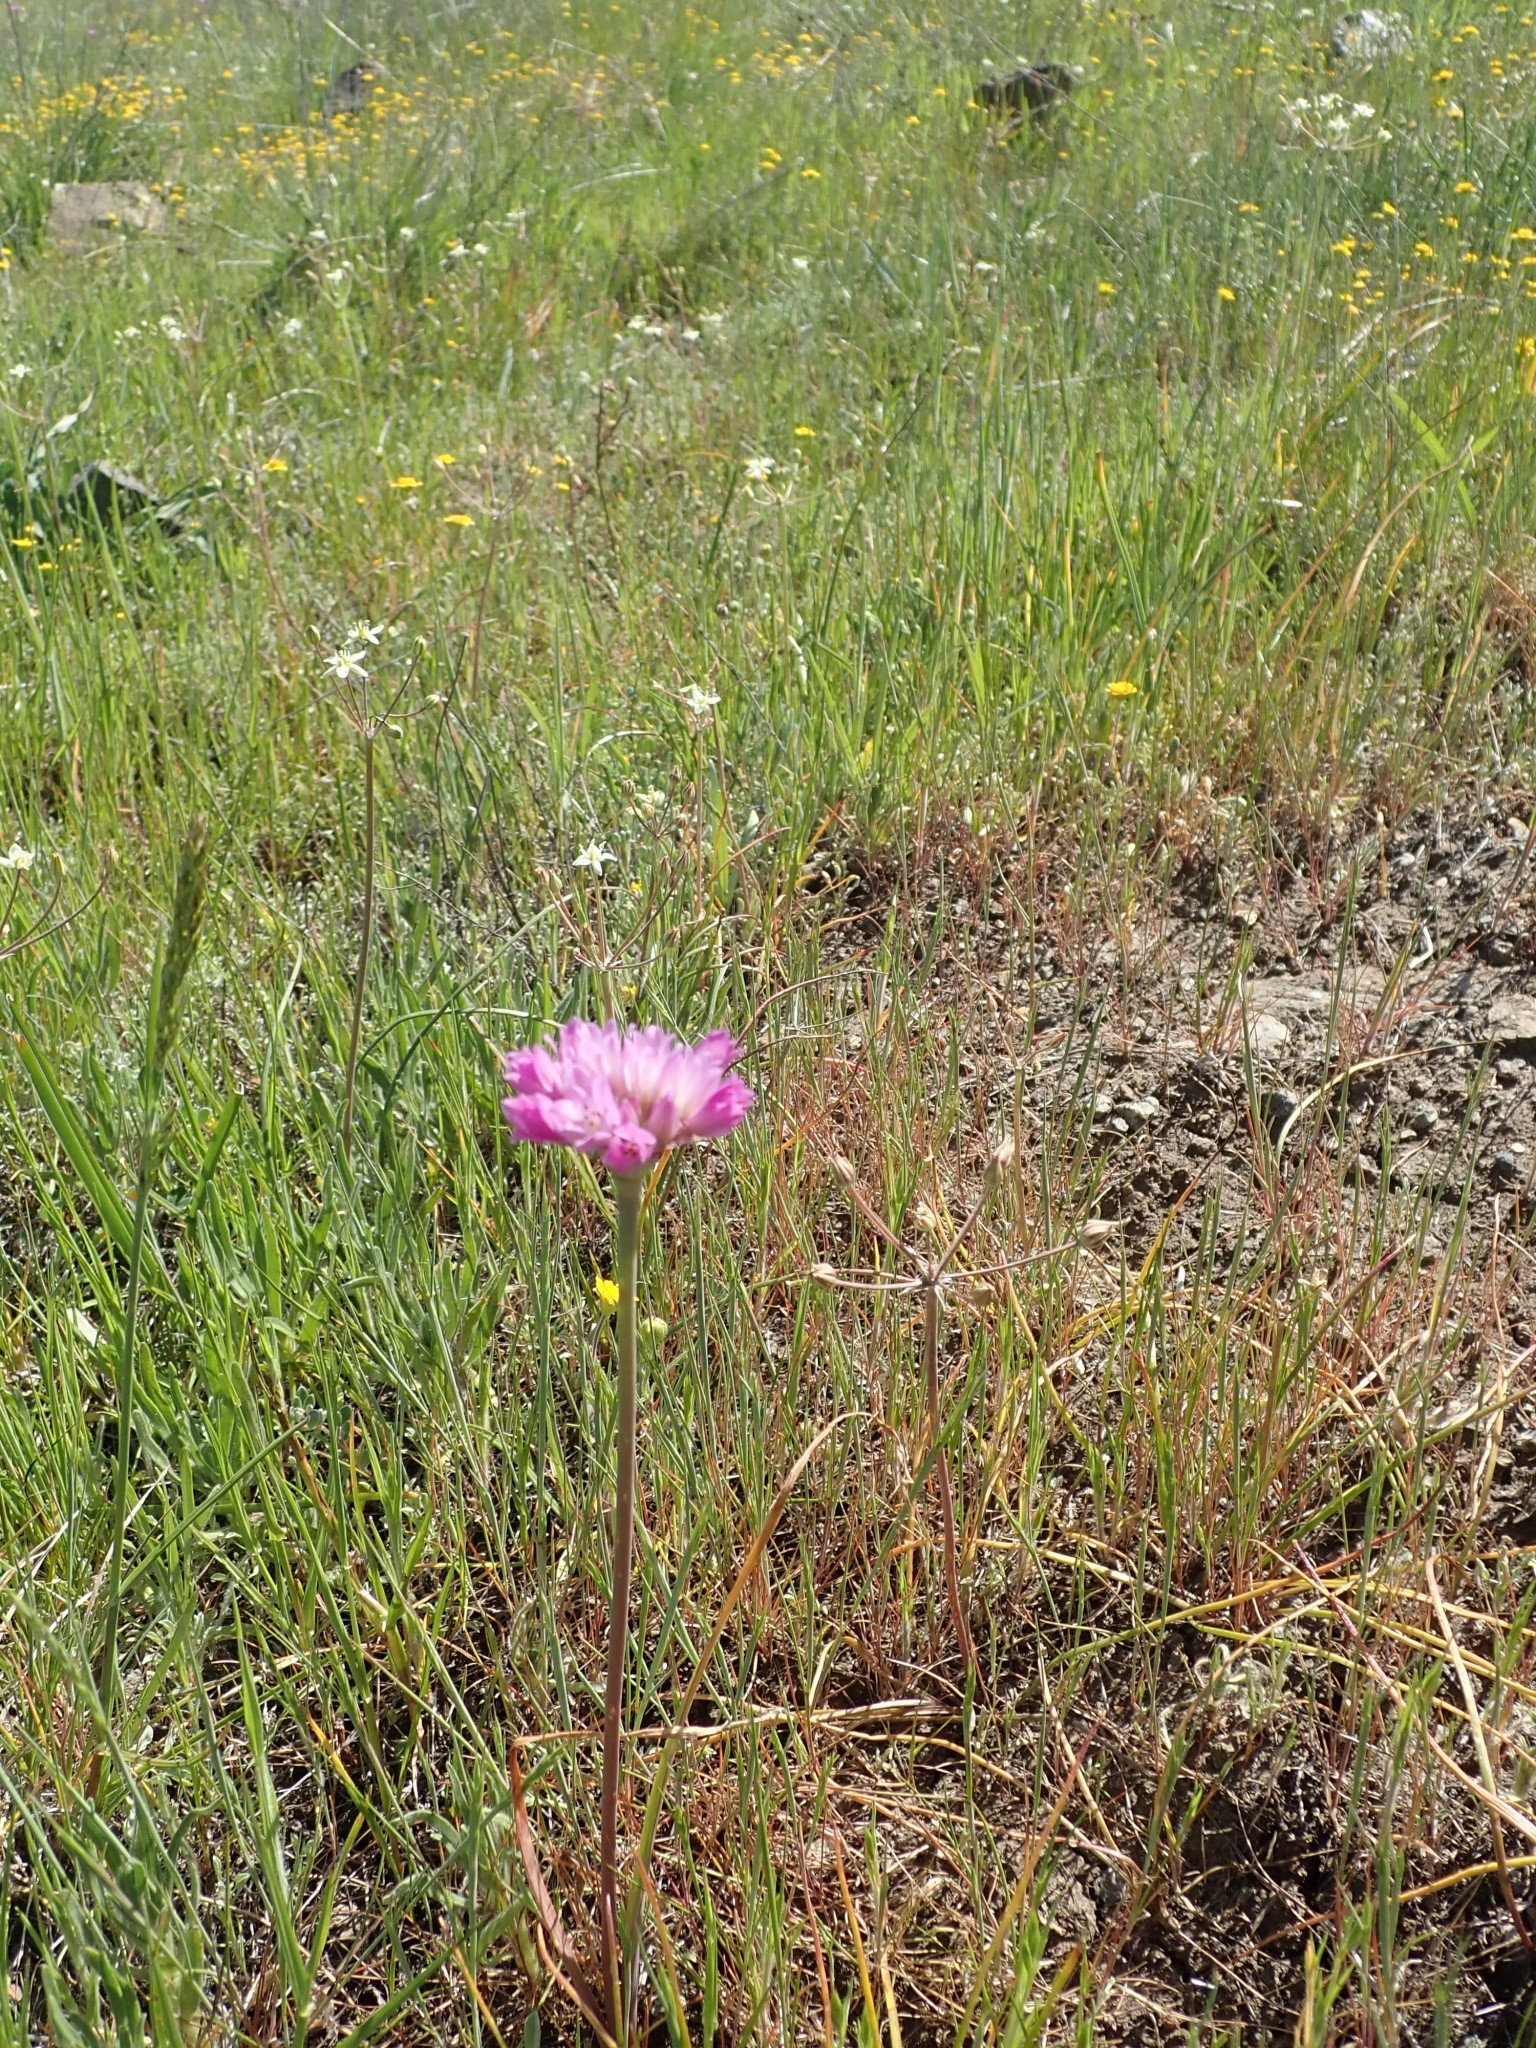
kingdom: Plantae
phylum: Tracheophyta
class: Liliopsida
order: Asparagales
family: Amaryllidaceae
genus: Allium
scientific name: Allium serra
